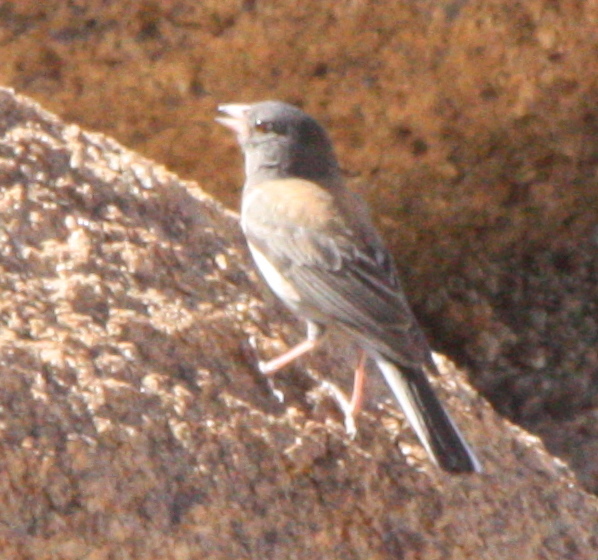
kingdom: Animalia
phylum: Chordata
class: Aves
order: Passeriformes
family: Passerellidae
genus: Junco
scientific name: Junco hyemalis
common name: Dark-eyed junco
